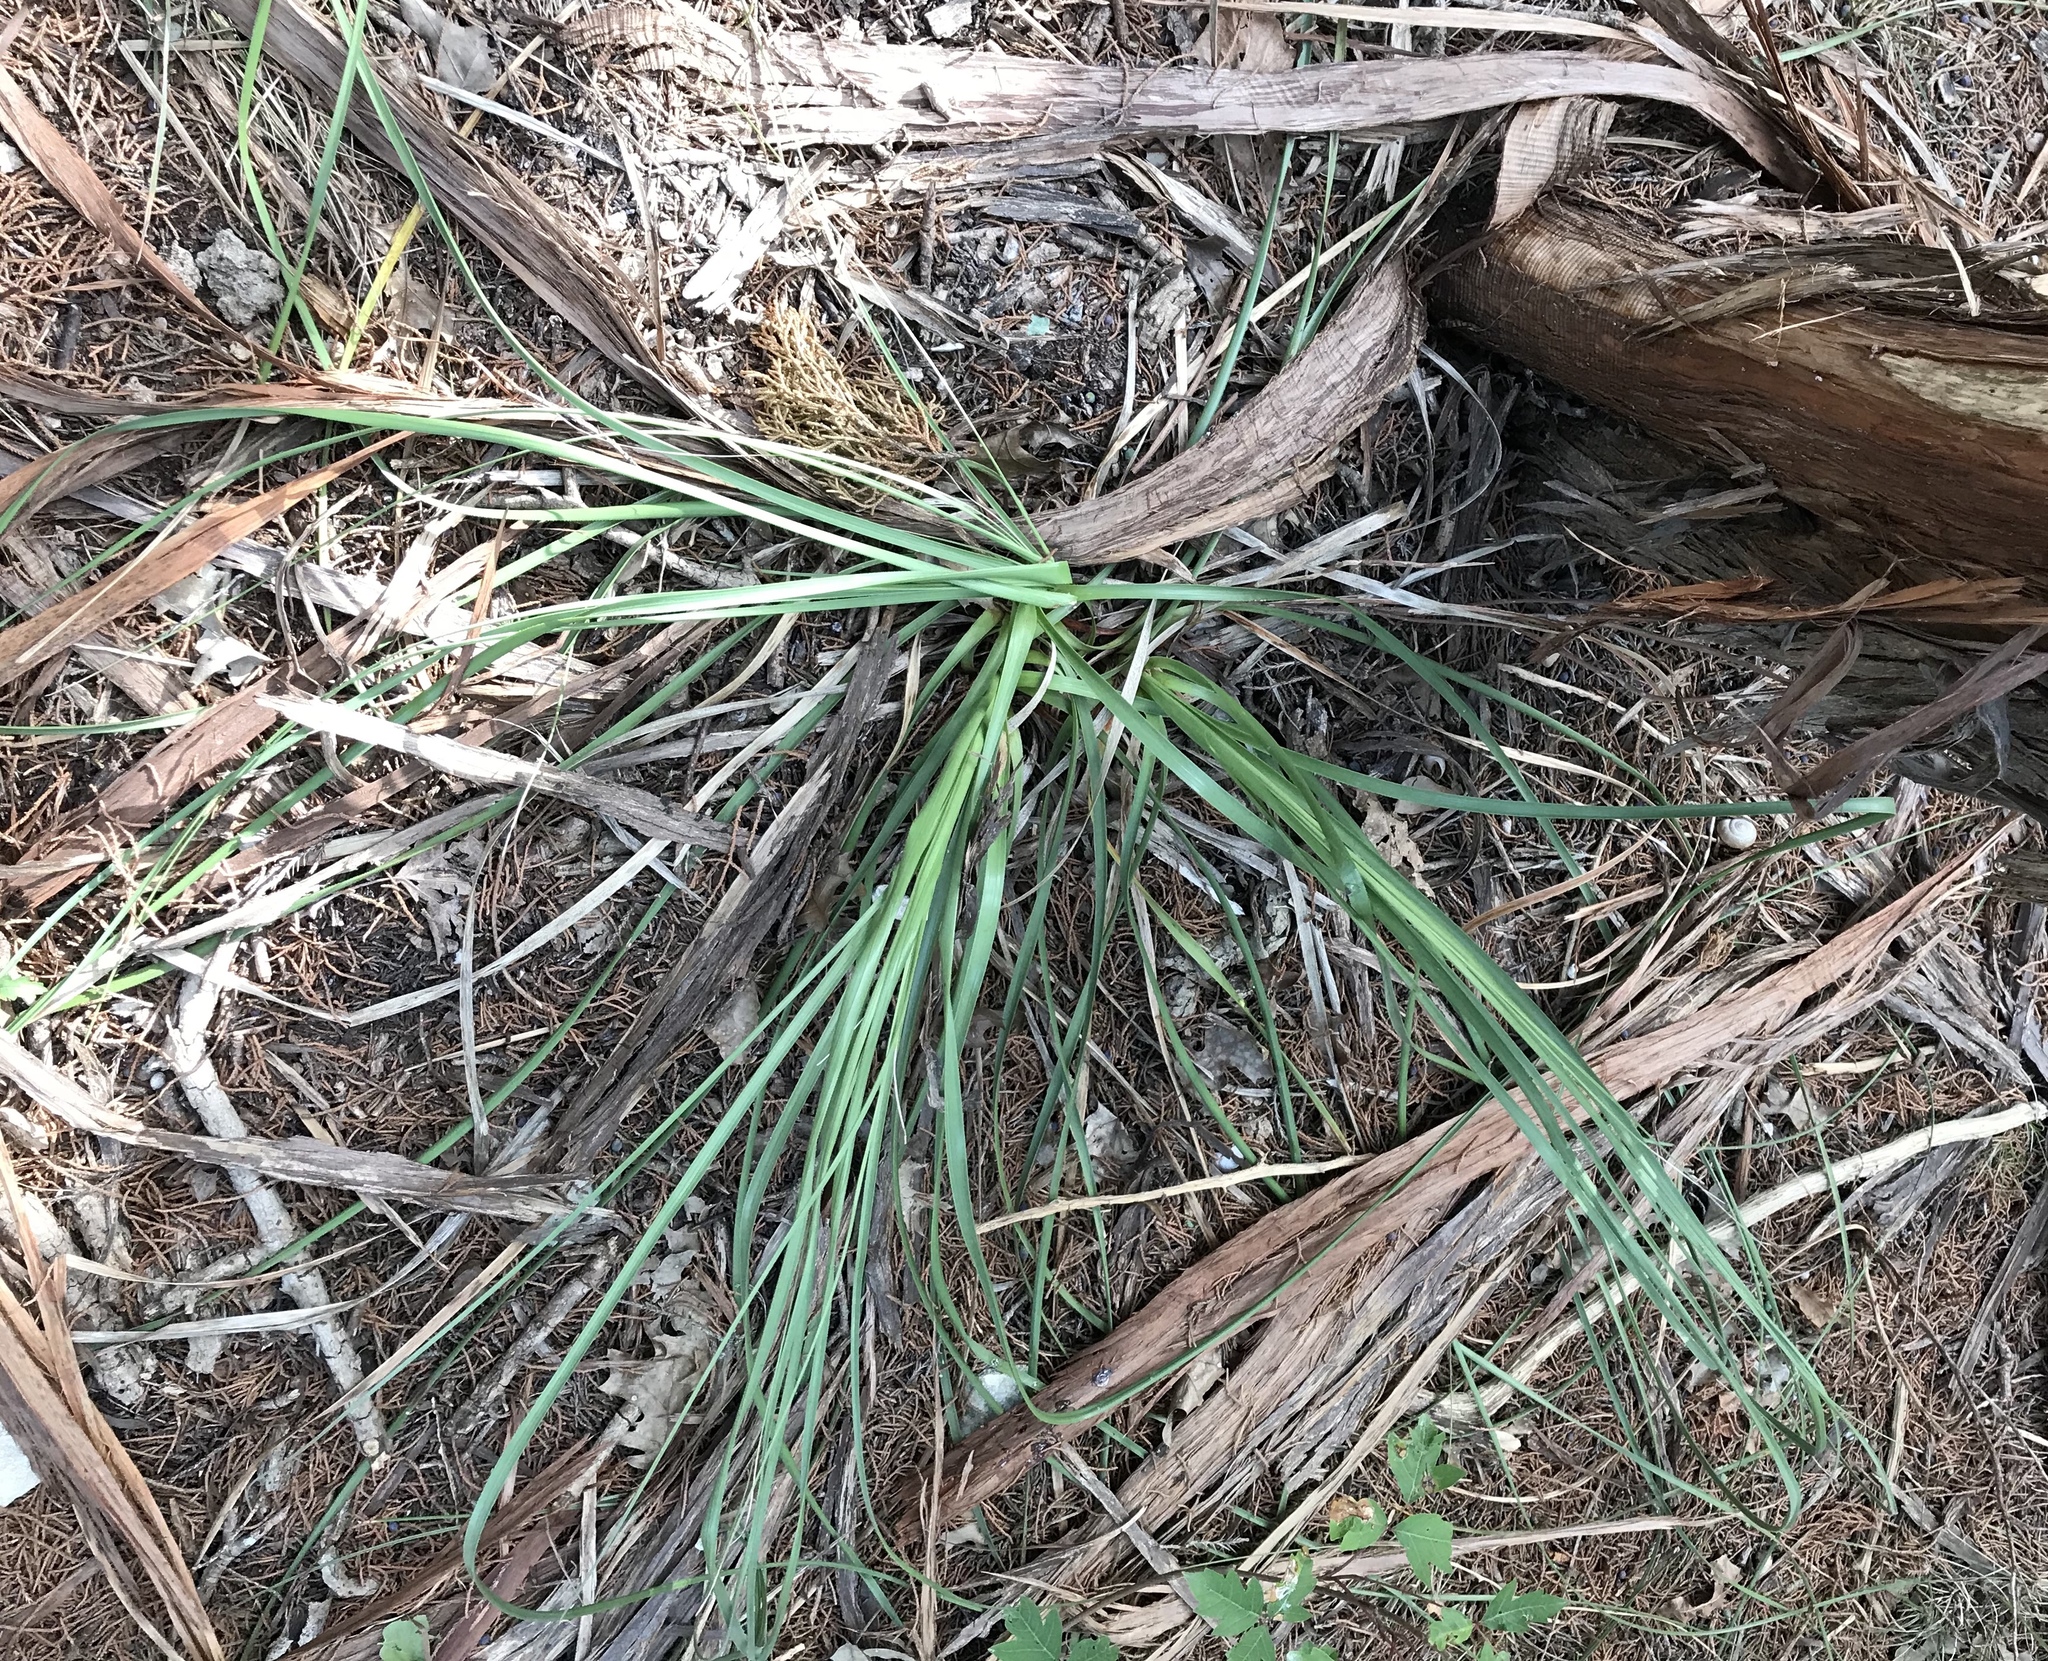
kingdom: Plantae
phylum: Tracheophyta
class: Liliopsida
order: Asparagales
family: Asparagaceae
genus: Nolina
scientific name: Nolina lindheimeriana
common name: Lindheimer's bear-grass
